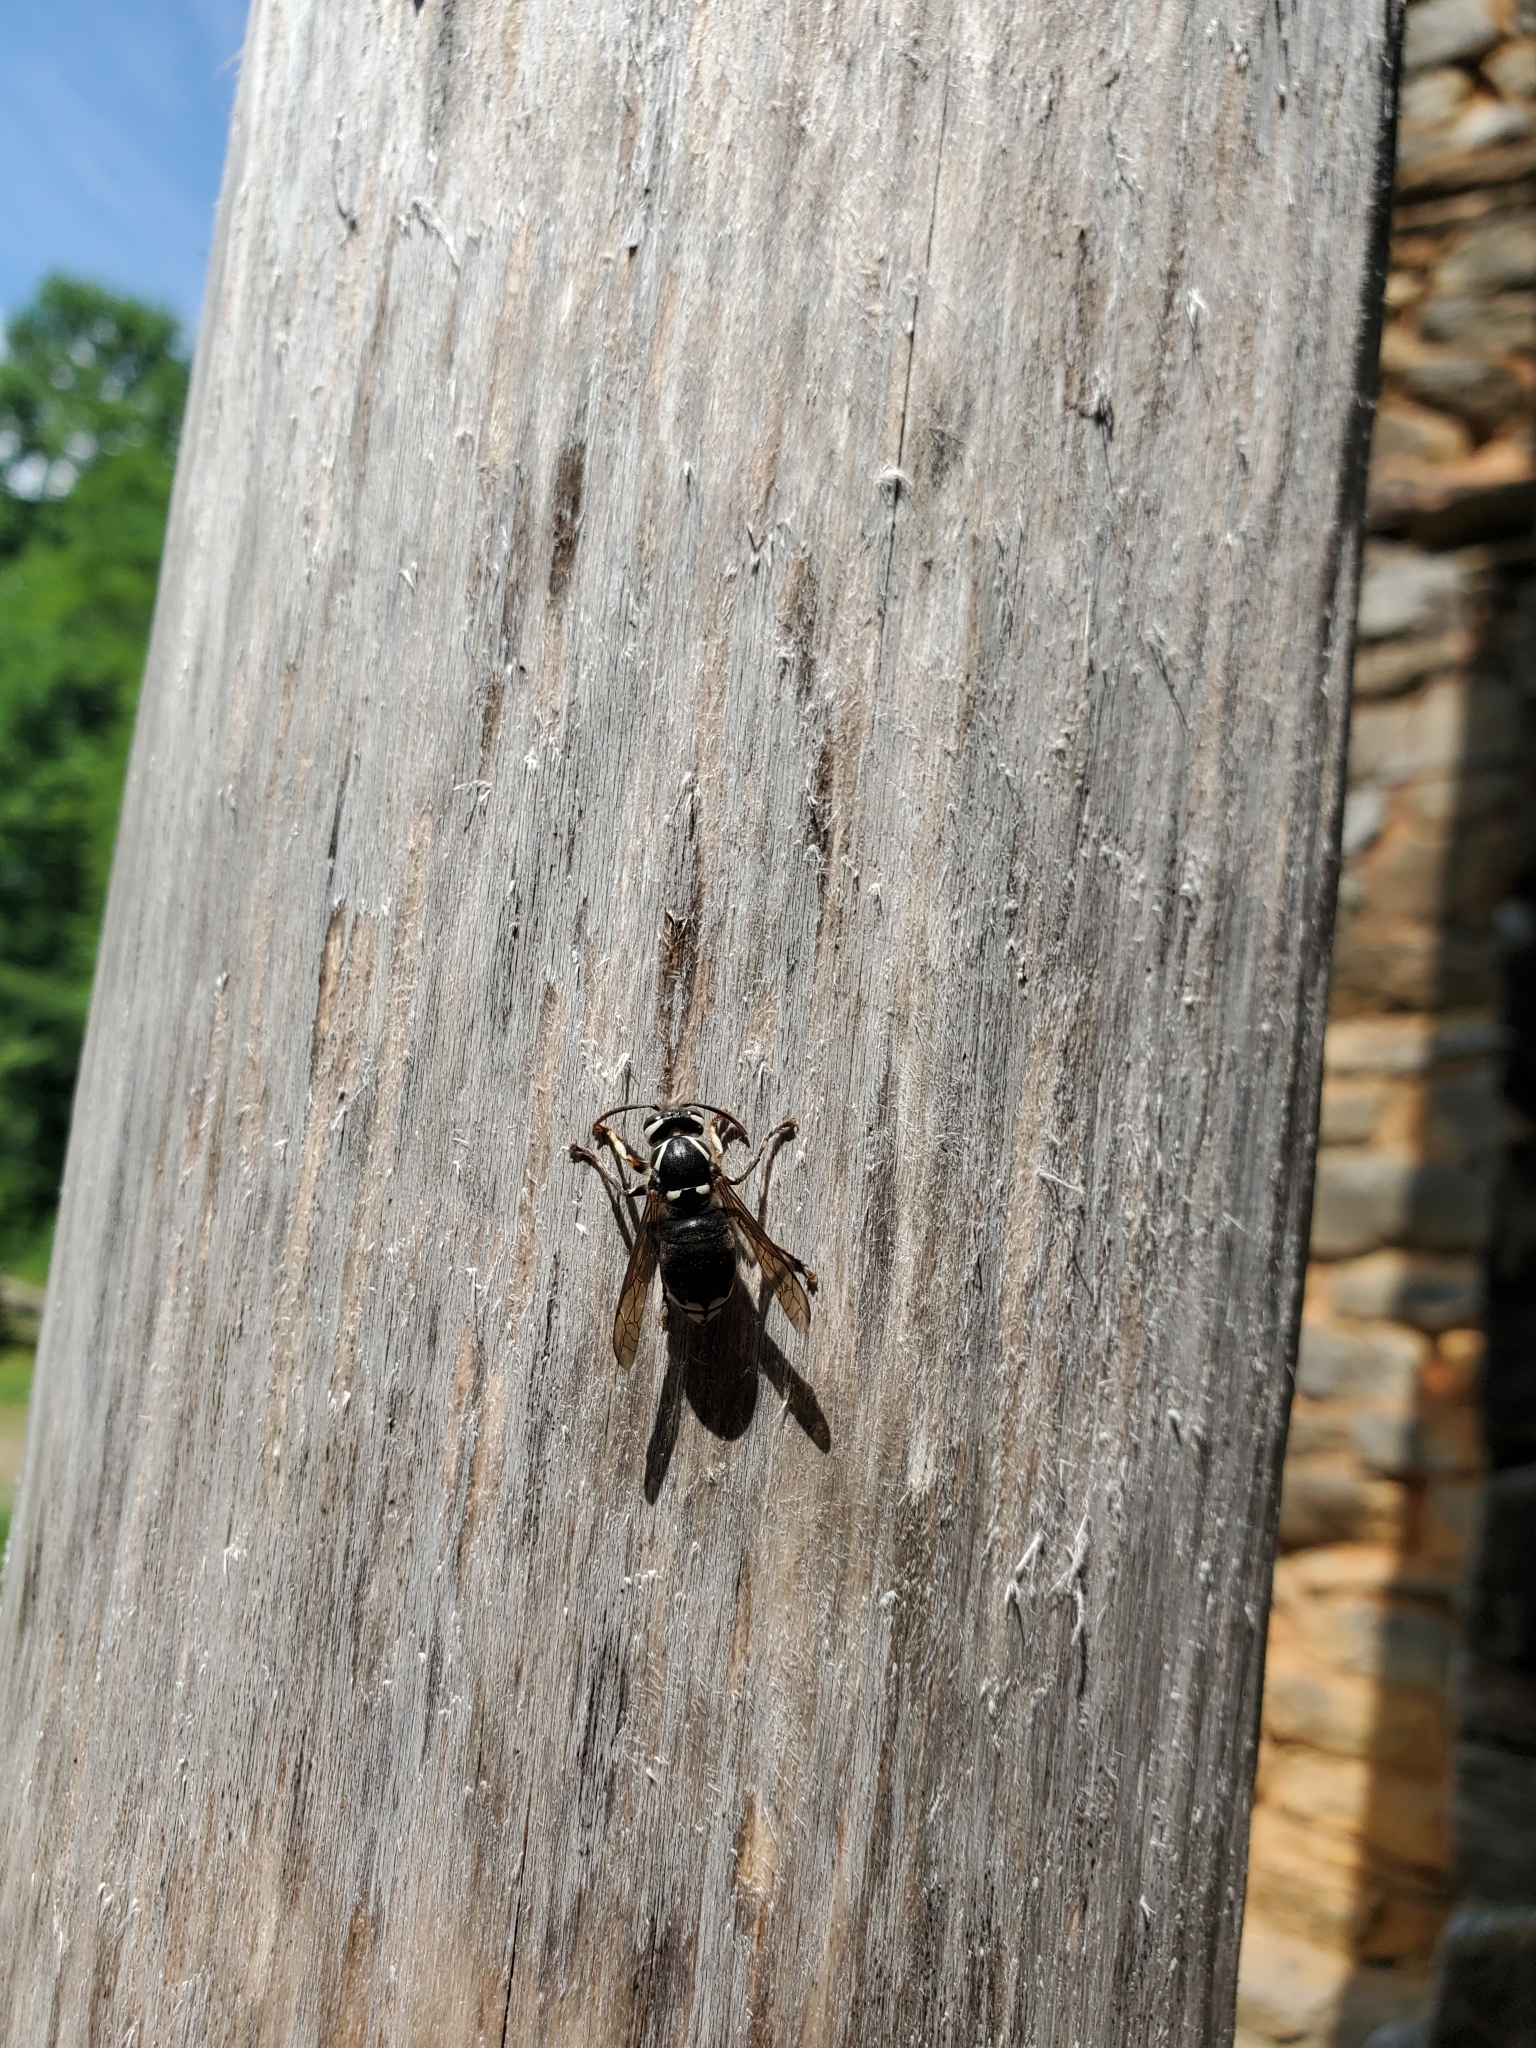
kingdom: Animalia
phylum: Arthropoda
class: Insecta
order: Hymenoptera
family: Vespidae
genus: Dolichovespula
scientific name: Dolichovespula maculata
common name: Bald-faced hornet
